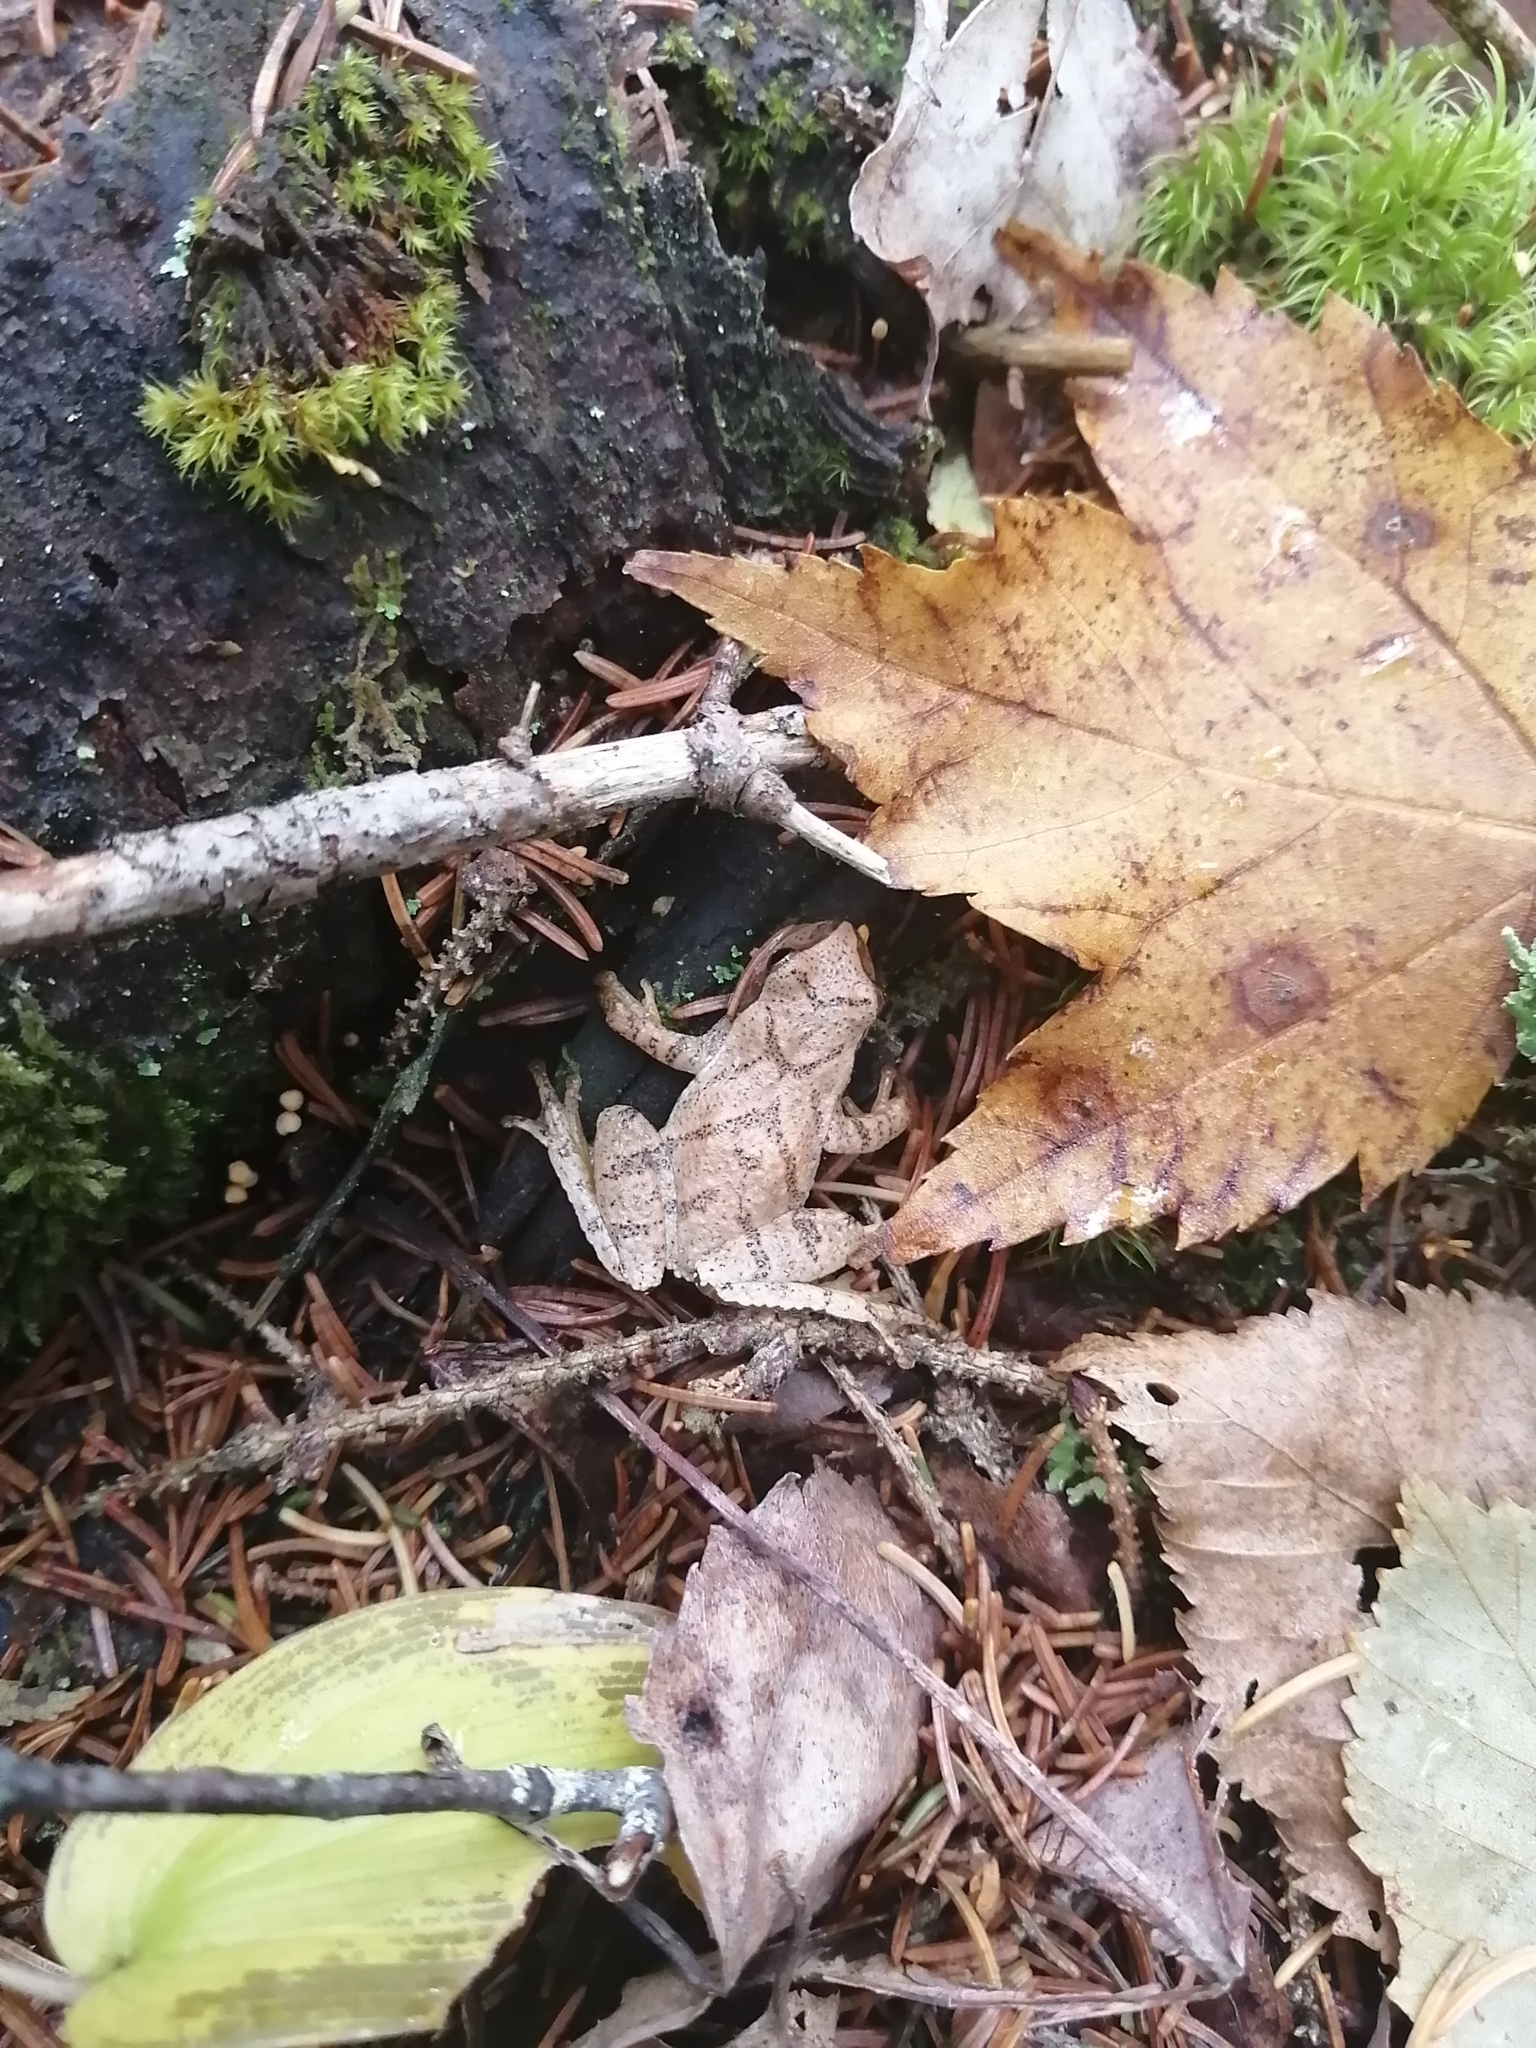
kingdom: Animalia
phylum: Chordata
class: Amphibia
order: Anura
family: Hylidae
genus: Pseudacris
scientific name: Pseudacris crucifer
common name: Spring peeper
